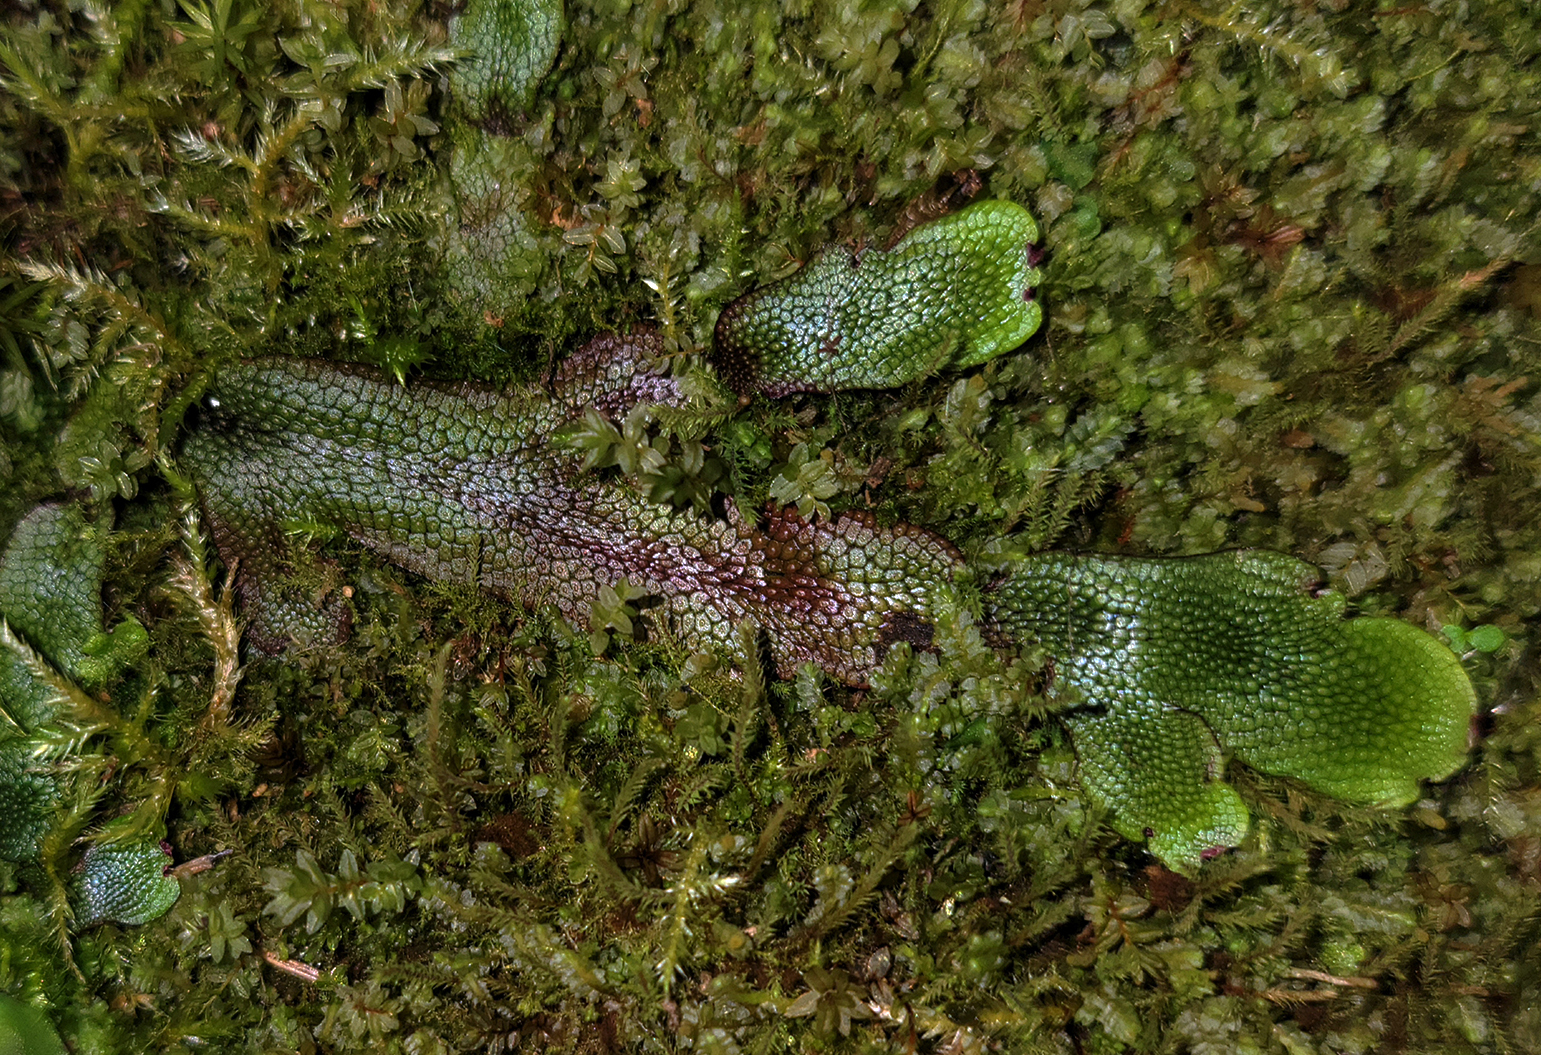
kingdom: Plantae
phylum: Marchantiophyta
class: Marchantiopsida
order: Marchantiales
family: Conocephalaceae
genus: Conocephalum
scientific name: Conocephalum salebrosum
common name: Cat-tongue liverwort
